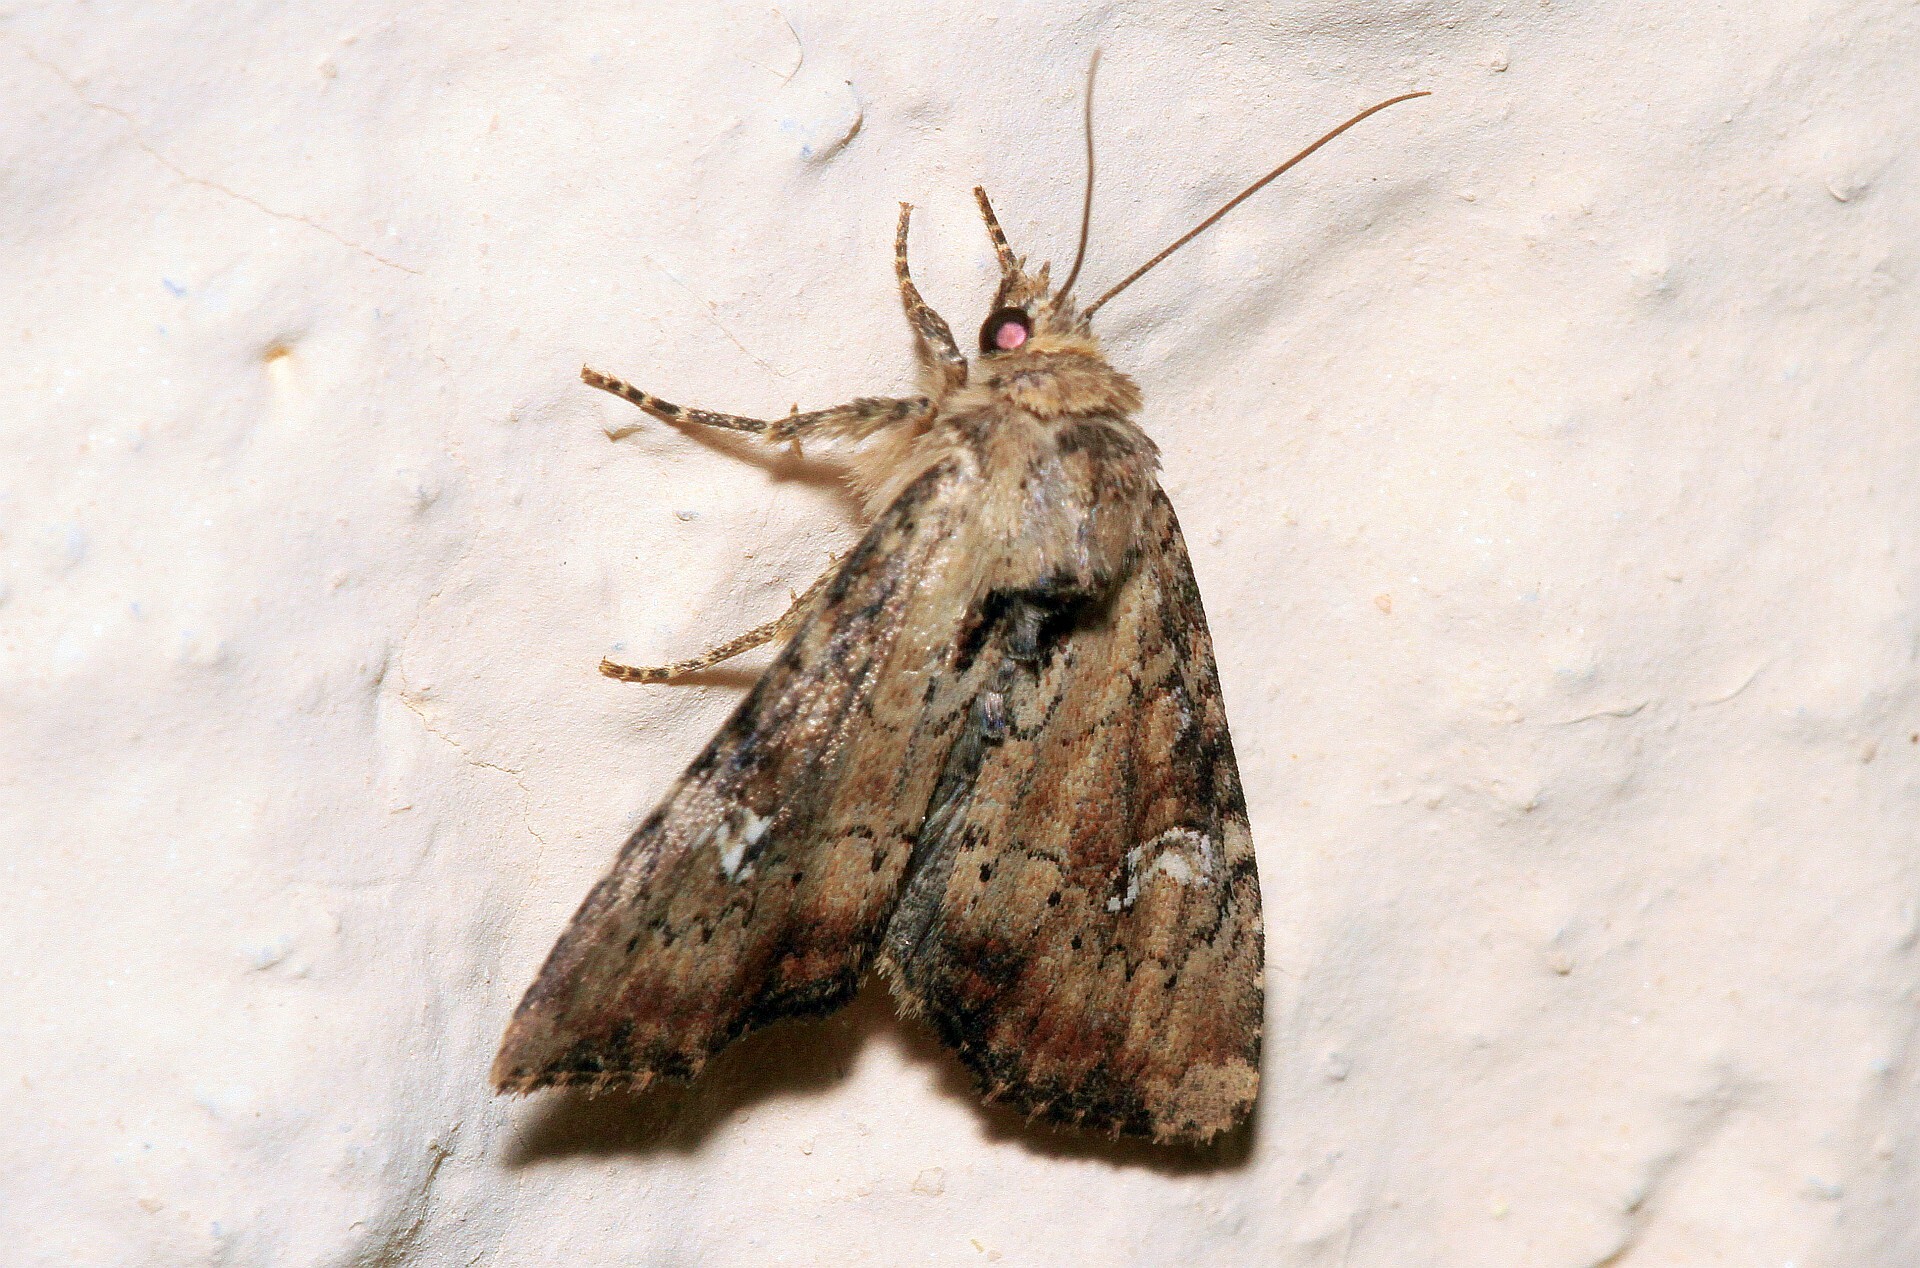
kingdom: Animalia
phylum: Arthropoda
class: Insecta
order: Lepidoptera
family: Noctuidae
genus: Loscopia
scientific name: Loscopia scolopacina
